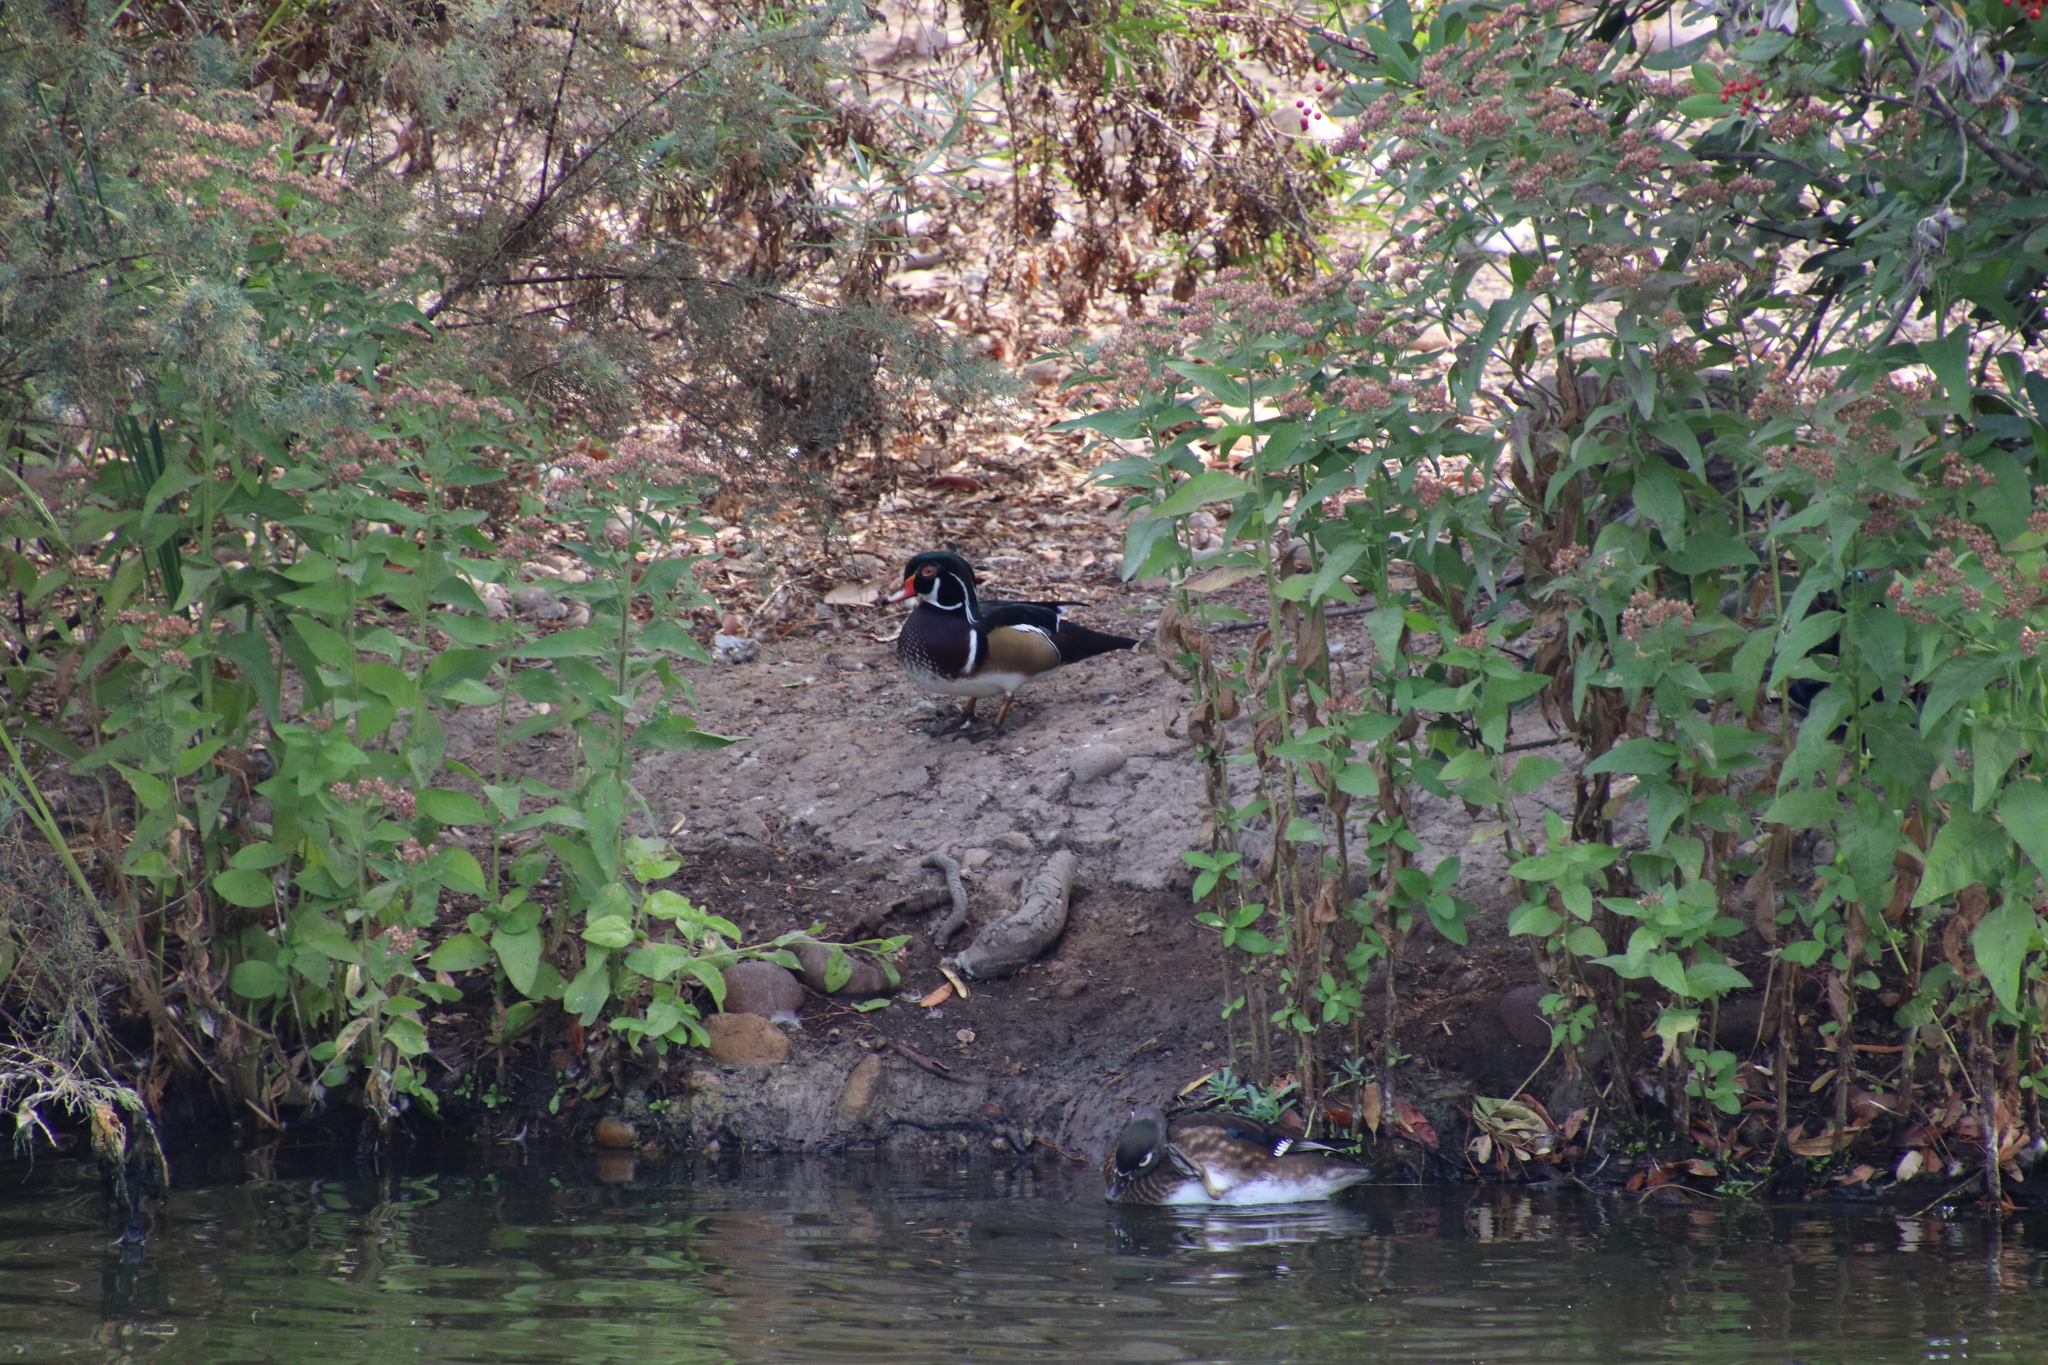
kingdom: Animalia
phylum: Chordata
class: Aves
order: Anseriformes
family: Anatidae
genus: Aix
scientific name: Aix sponsa
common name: Wood duck
